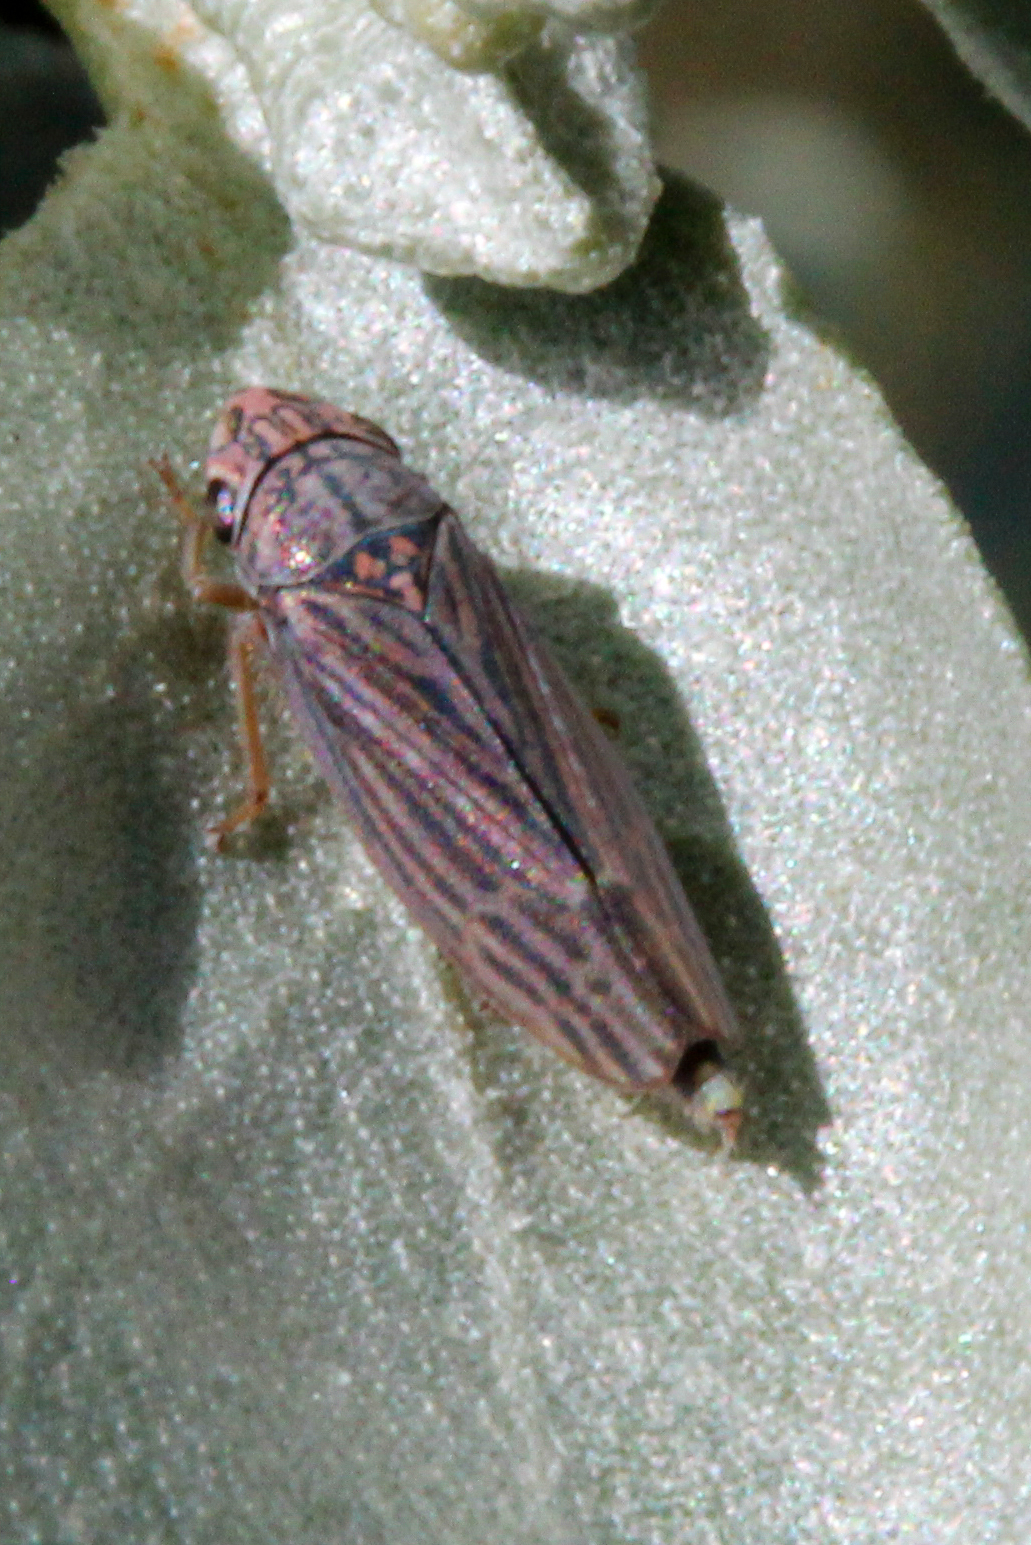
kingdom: Animalia
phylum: Arthropoda
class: Insecta
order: Hemiptera
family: Cicadellidae
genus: Neokolla
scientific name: Neokolla hieroglyphica
